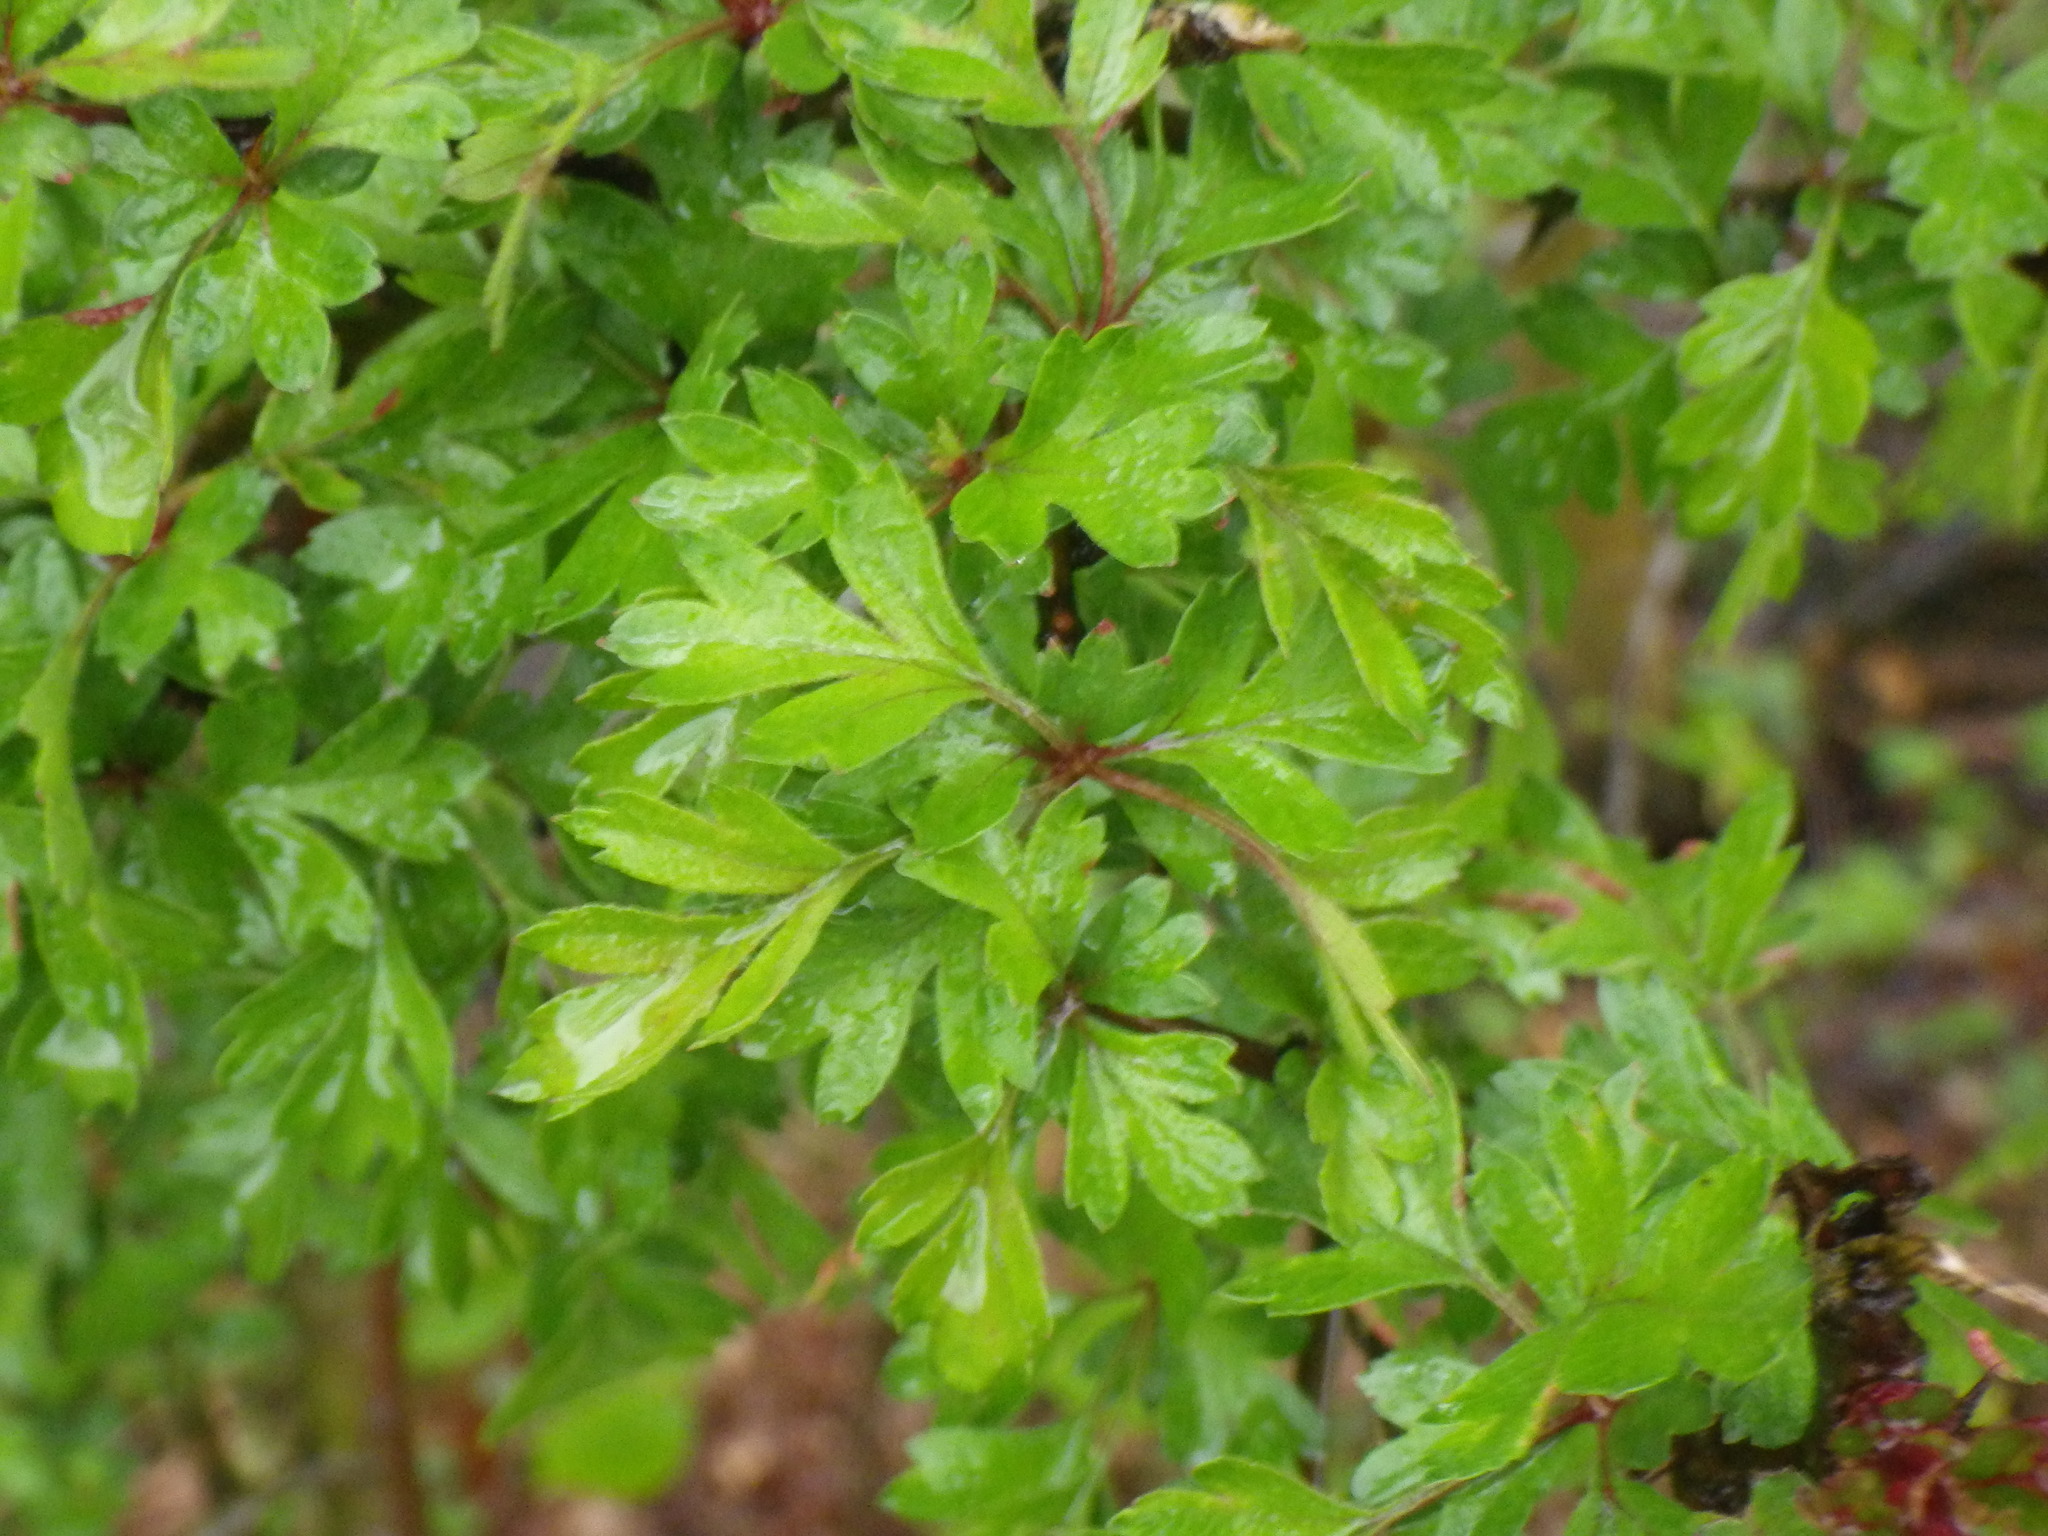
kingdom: Plantae
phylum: Tracheophyta
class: Magnoliopsida
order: Rosales
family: Rosaceae
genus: Crataegus
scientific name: Crataegus monogyna
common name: Hawthorn
